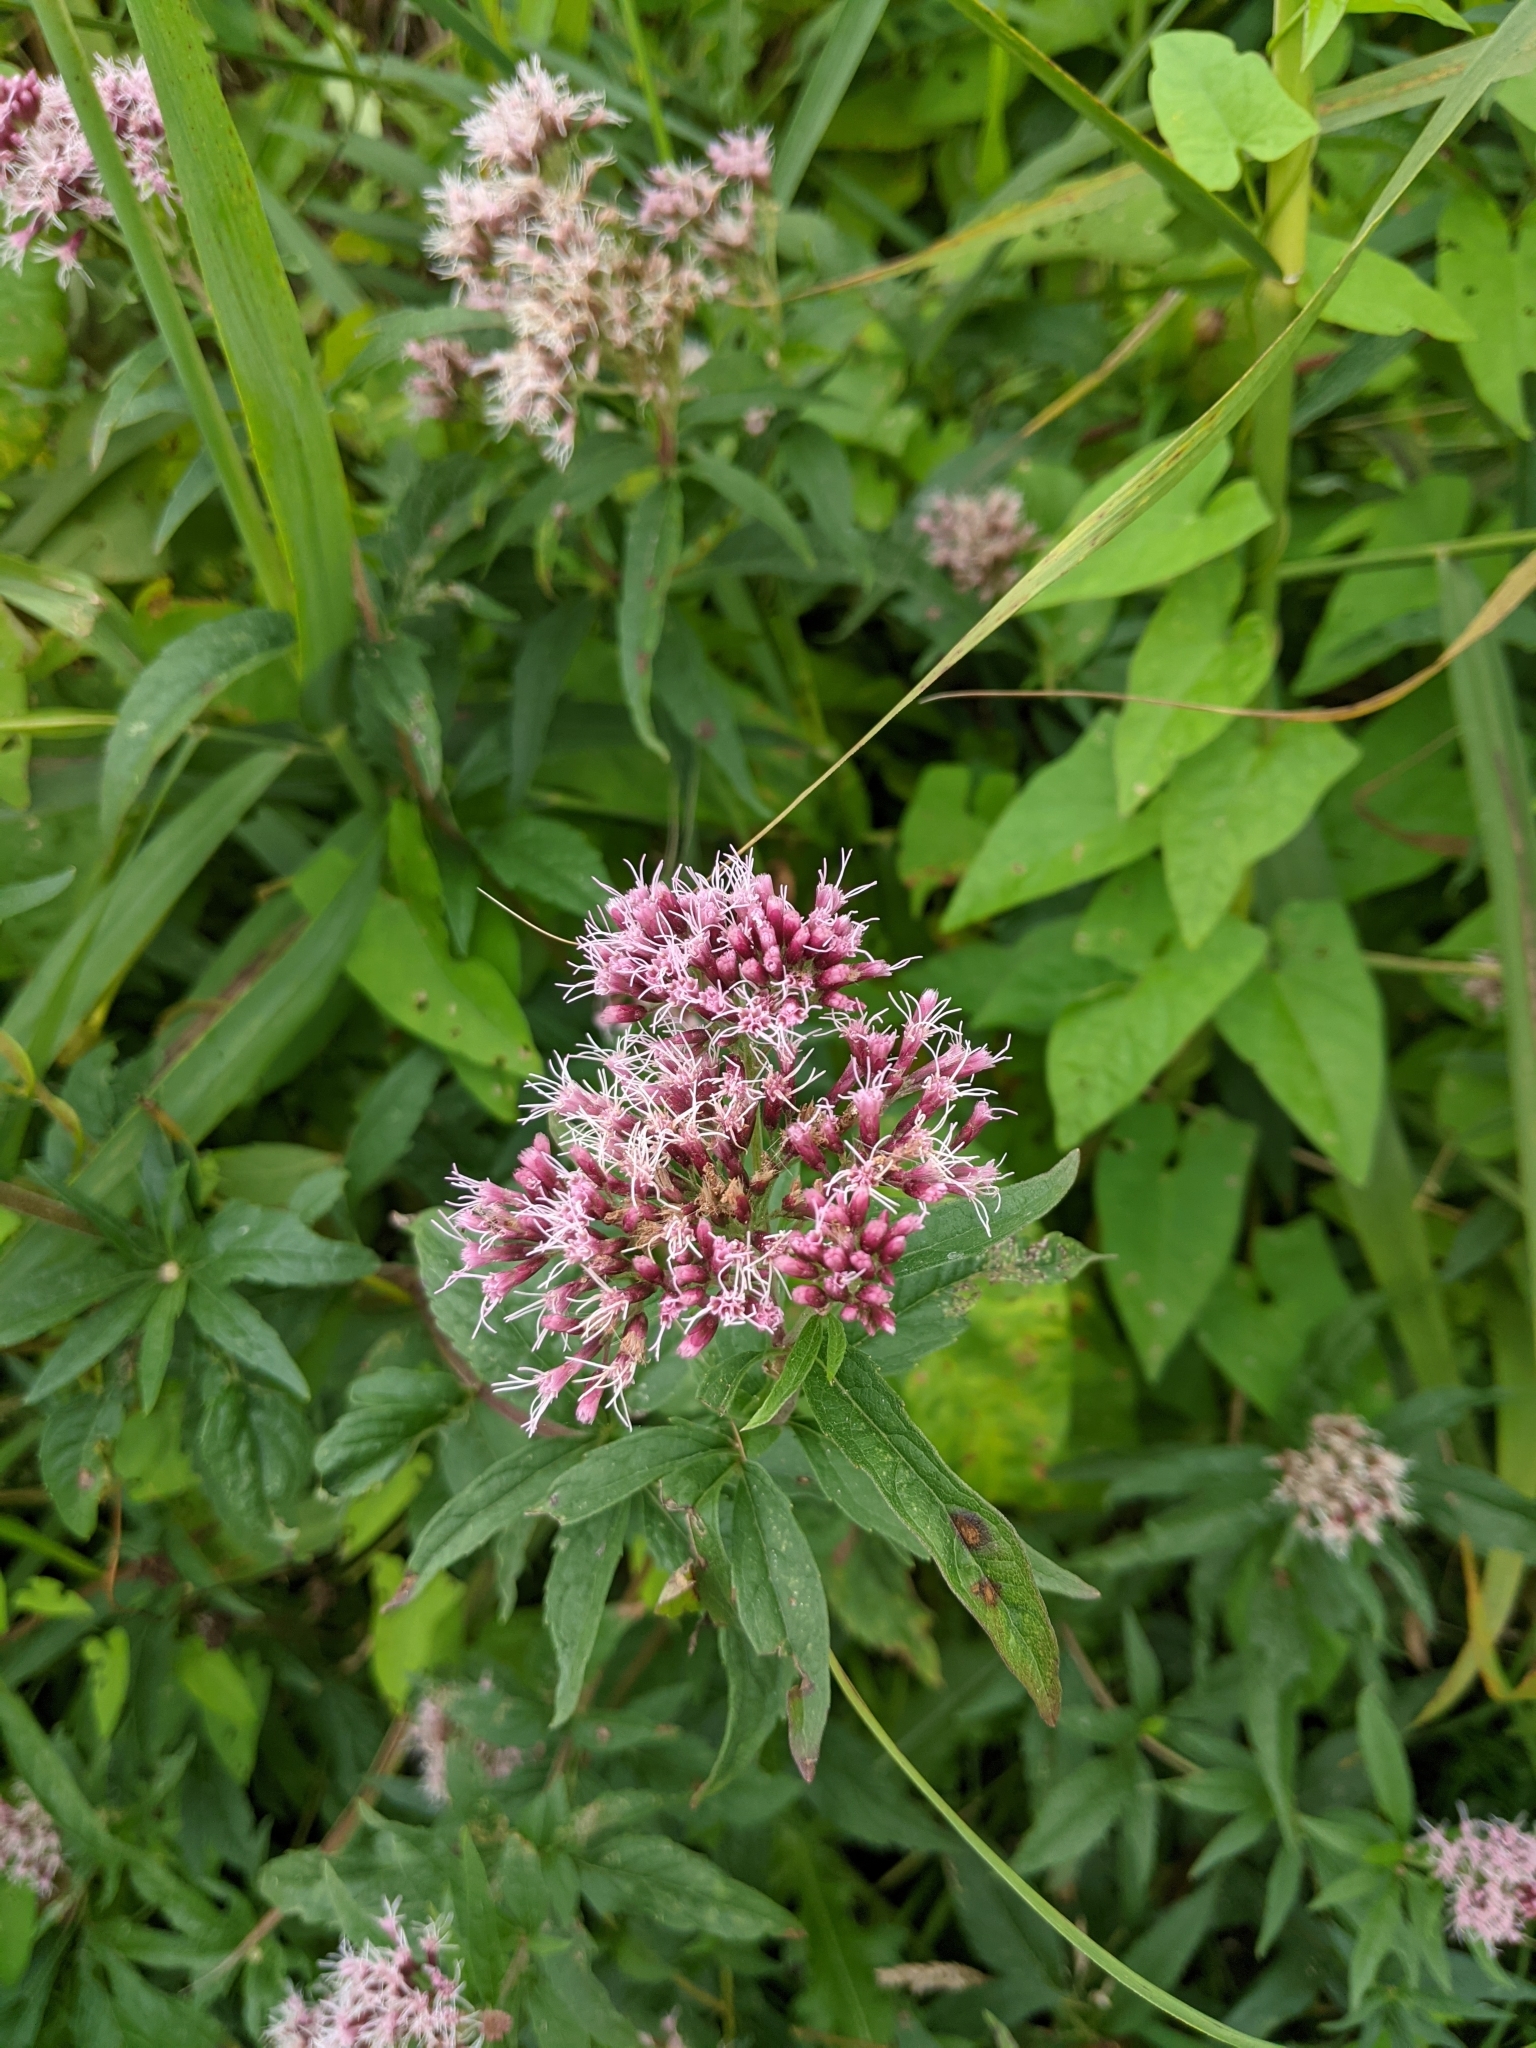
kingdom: Plantae
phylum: Tracheophyta
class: Magnoliopsida
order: Asterales
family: Asteraceae
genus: Eupatorium
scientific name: Eupatorium cannabinum
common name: Hemp-agrimony
